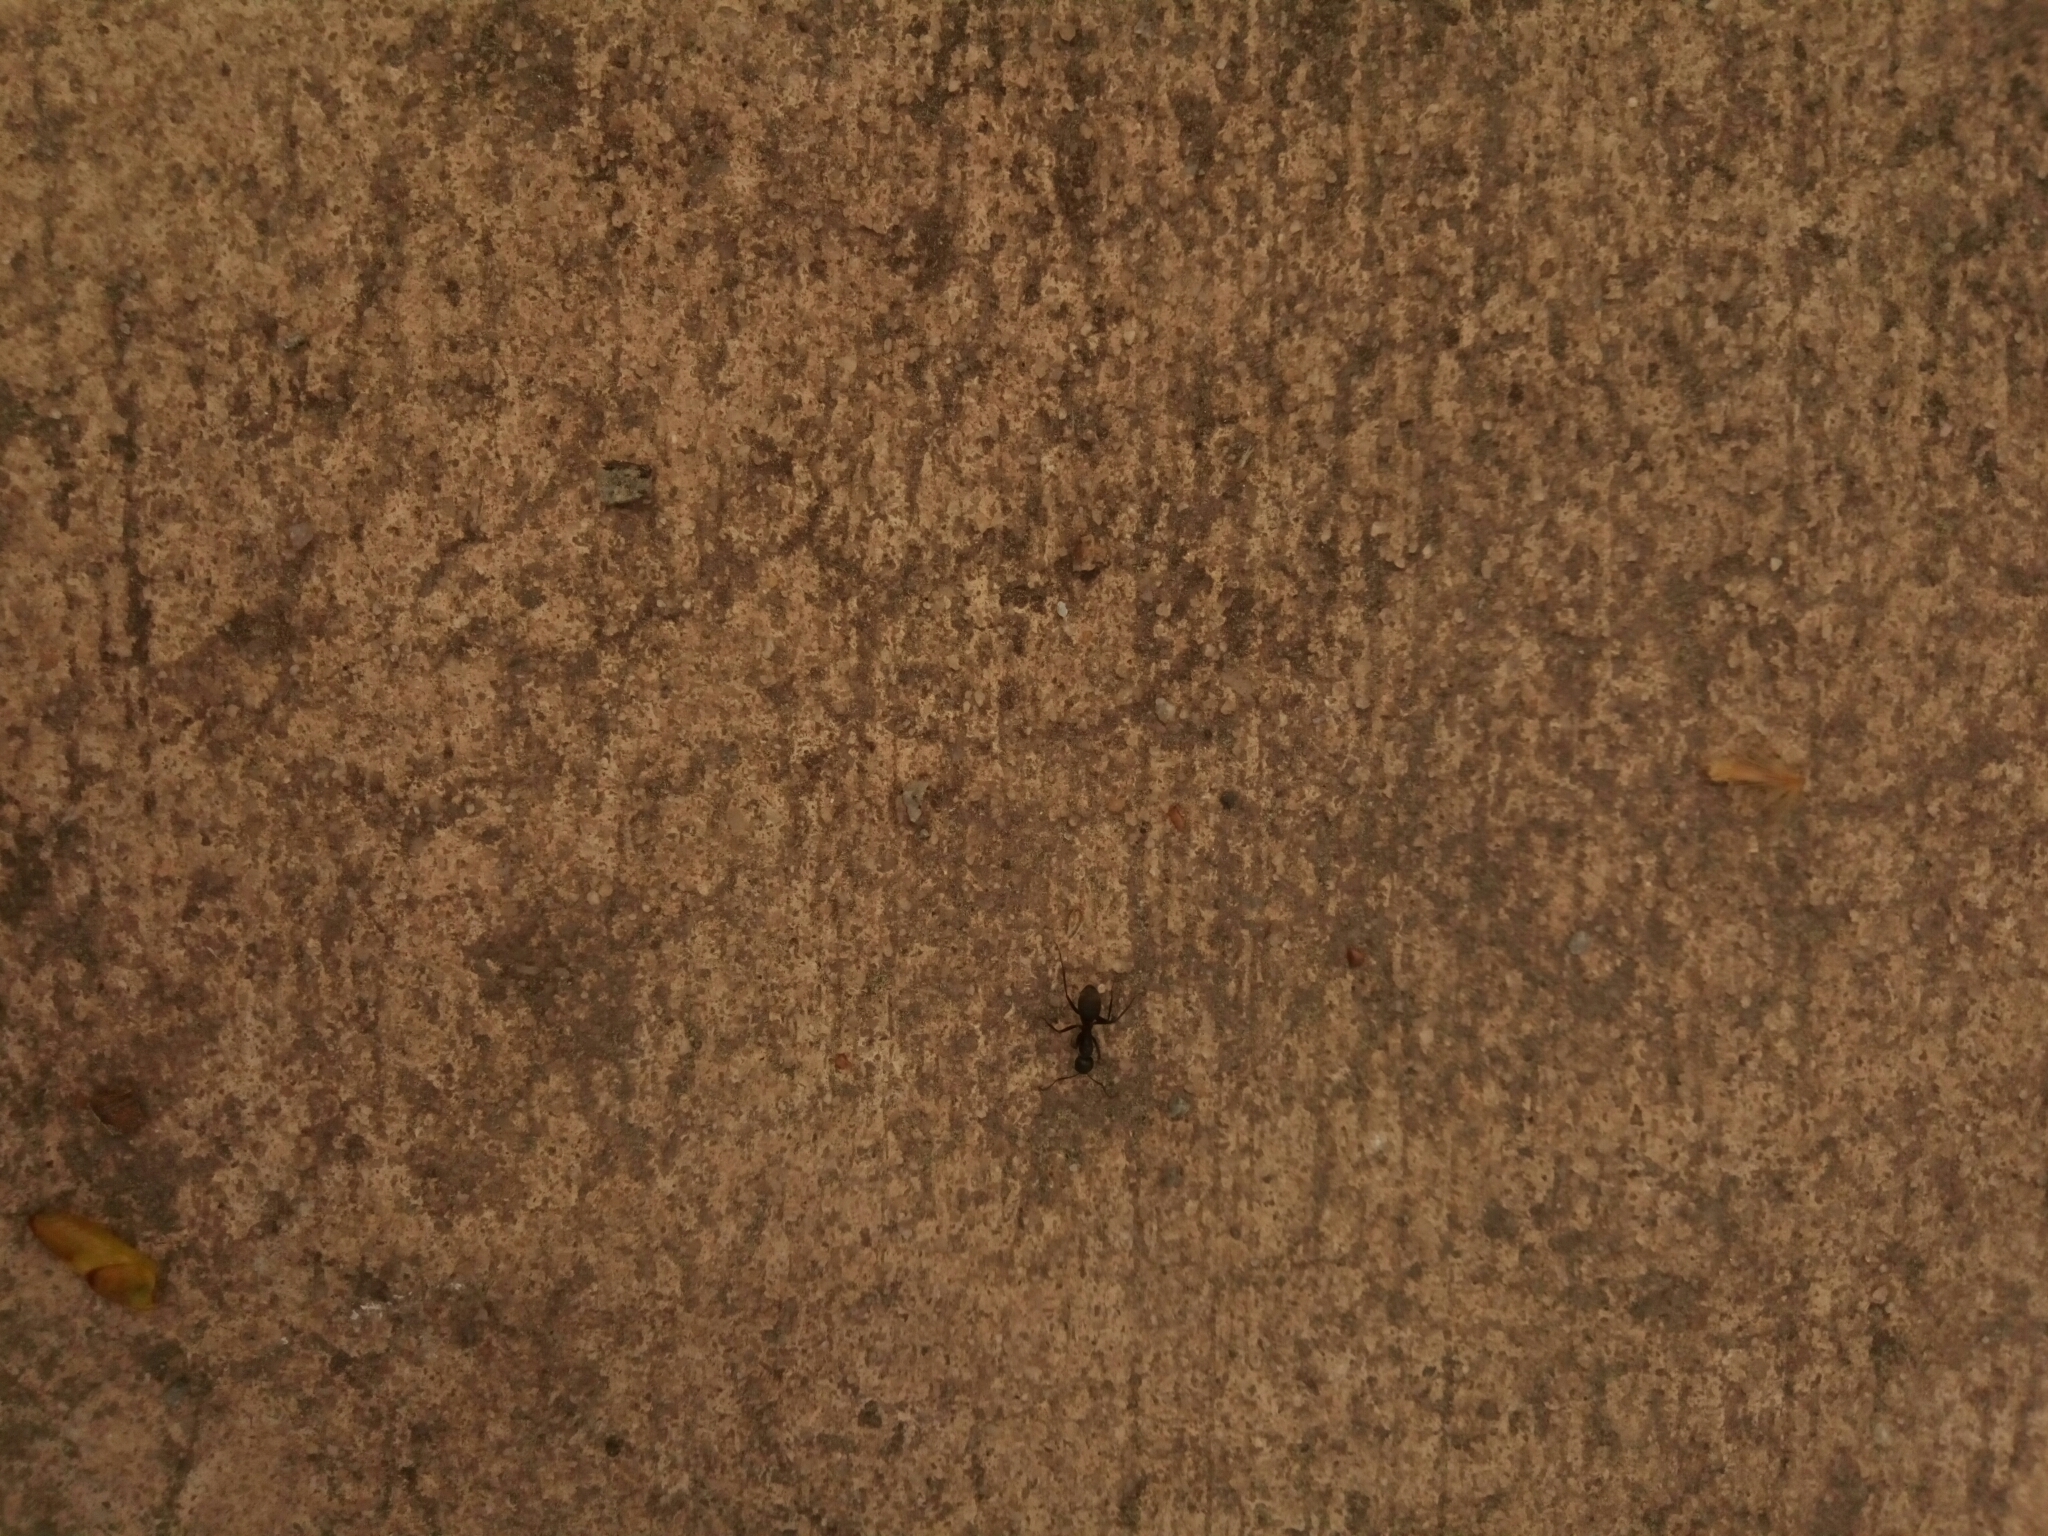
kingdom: Animalia
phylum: Arthropoda
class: Insecta
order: Hymenoptera
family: Formicidae
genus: Camponotus
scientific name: Camponotus chromaiodes
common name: Red carpenter ant
